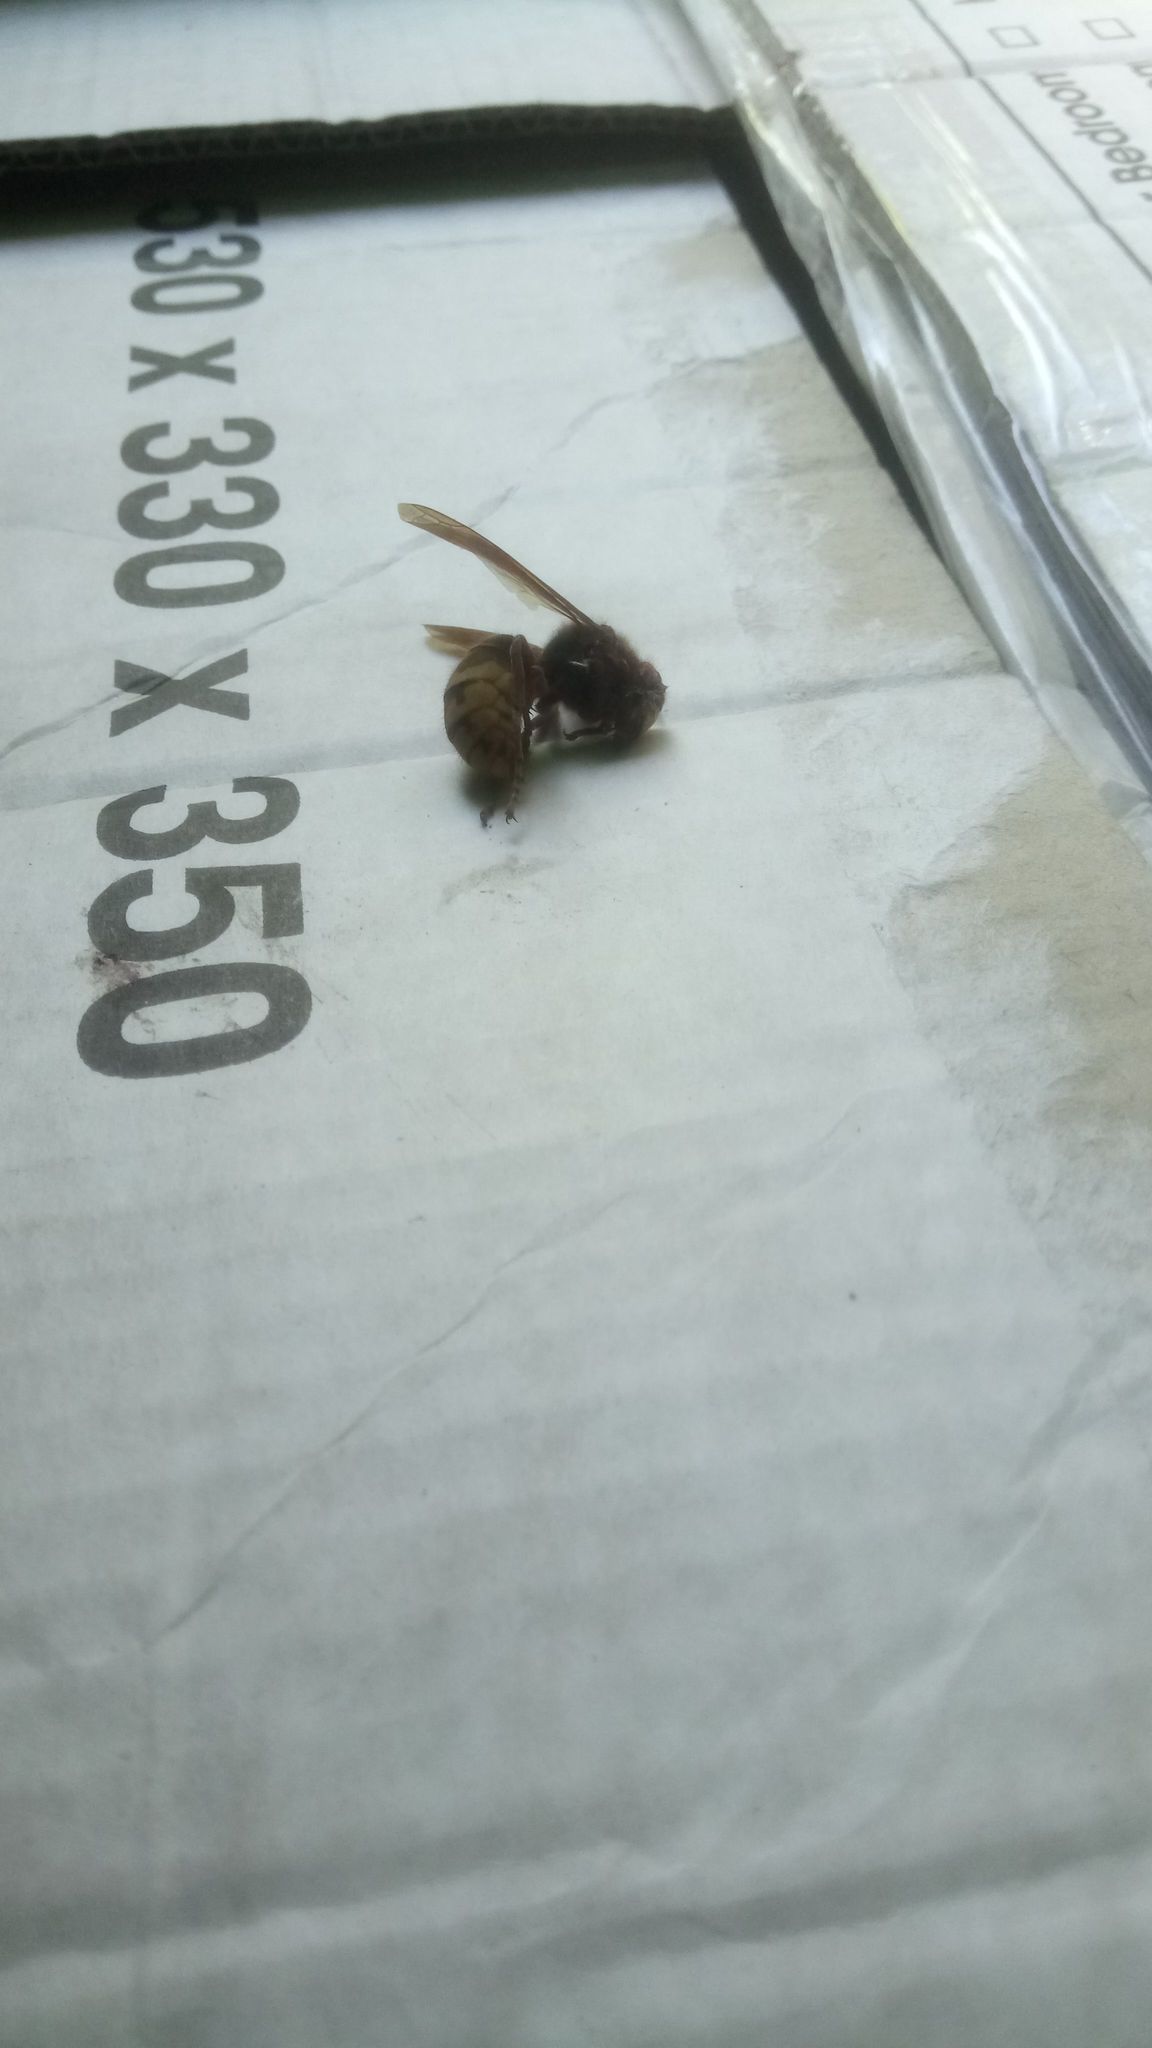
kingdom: Animalia
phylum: Arthropoda
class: Insecta
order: Hymenoptera
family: Vespidae
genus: Vespa
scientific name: Vespa crabro
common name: Hornet
